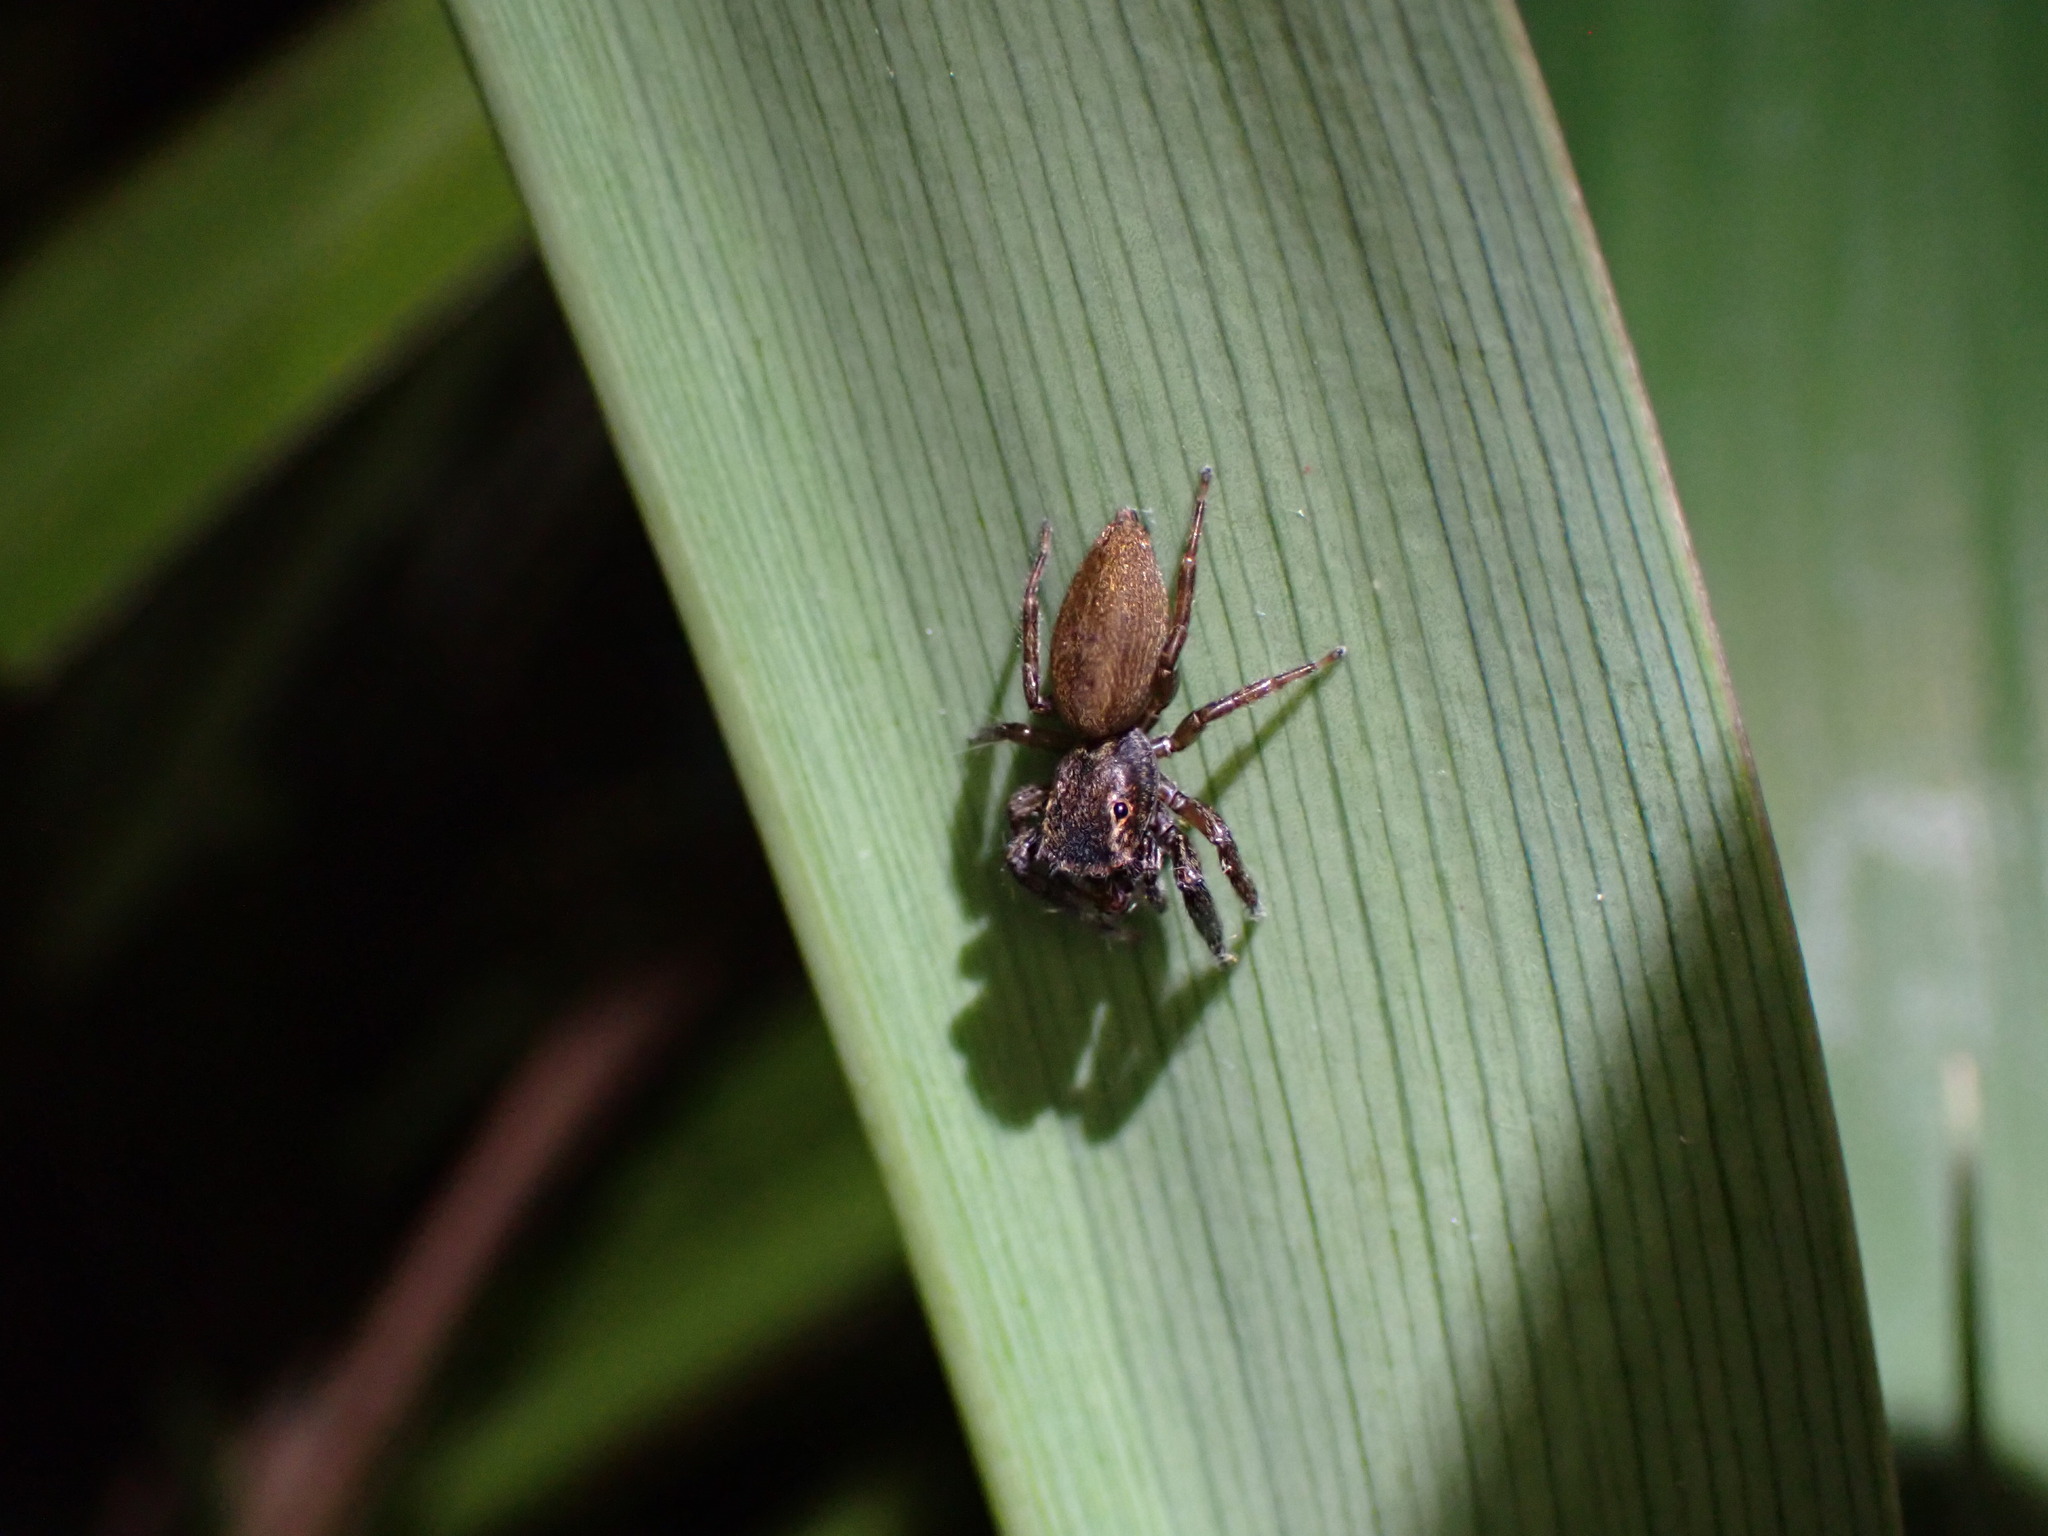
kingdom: Animalia
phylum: Arthropoda
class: Arachnida
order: Araneae
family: Salticidae
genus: Trite
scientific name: Trite auricoma
